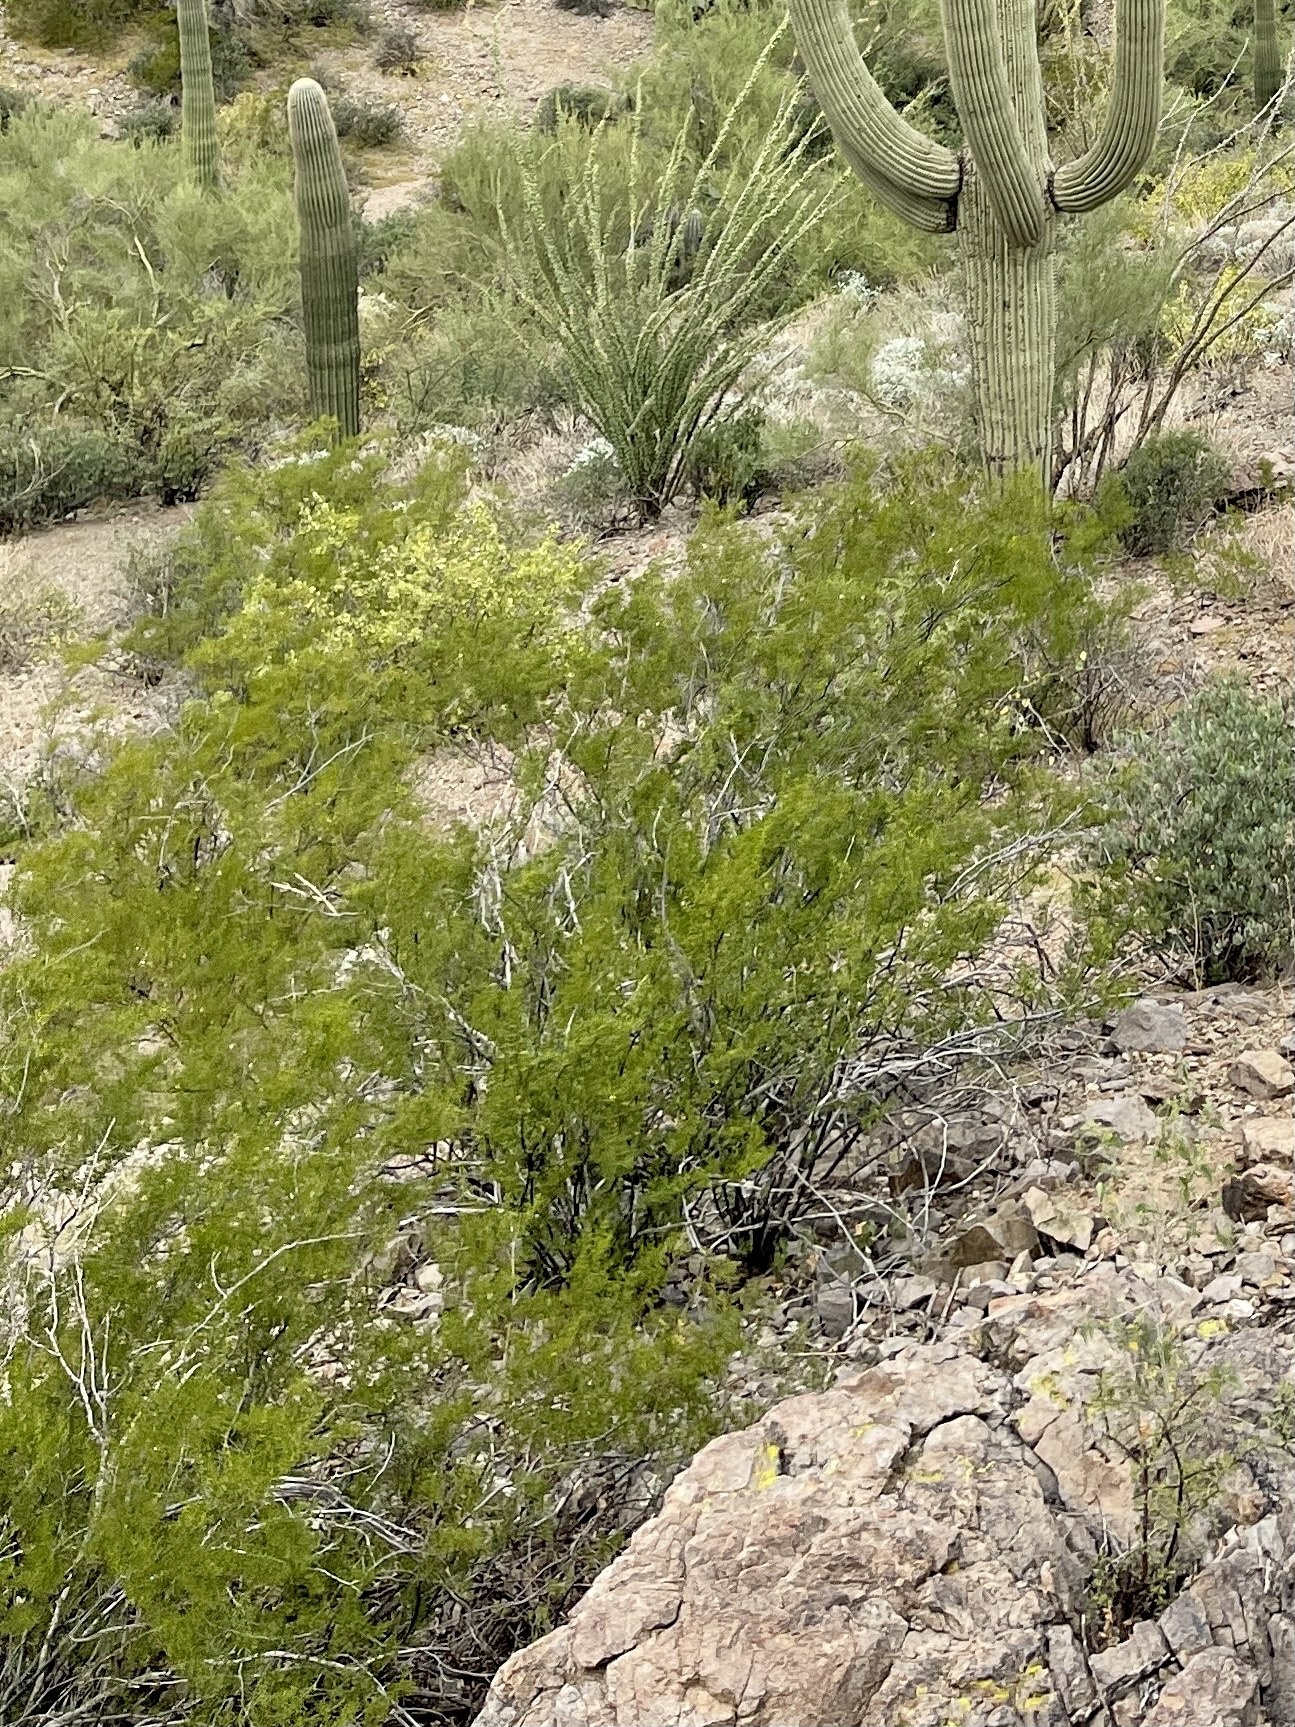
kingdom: Plantae
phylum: Tracheophyta
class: Magnoliopsida
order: Zygophyllales
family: Zygophyllaceae
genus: Larrea
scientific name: Larrea tridentata
